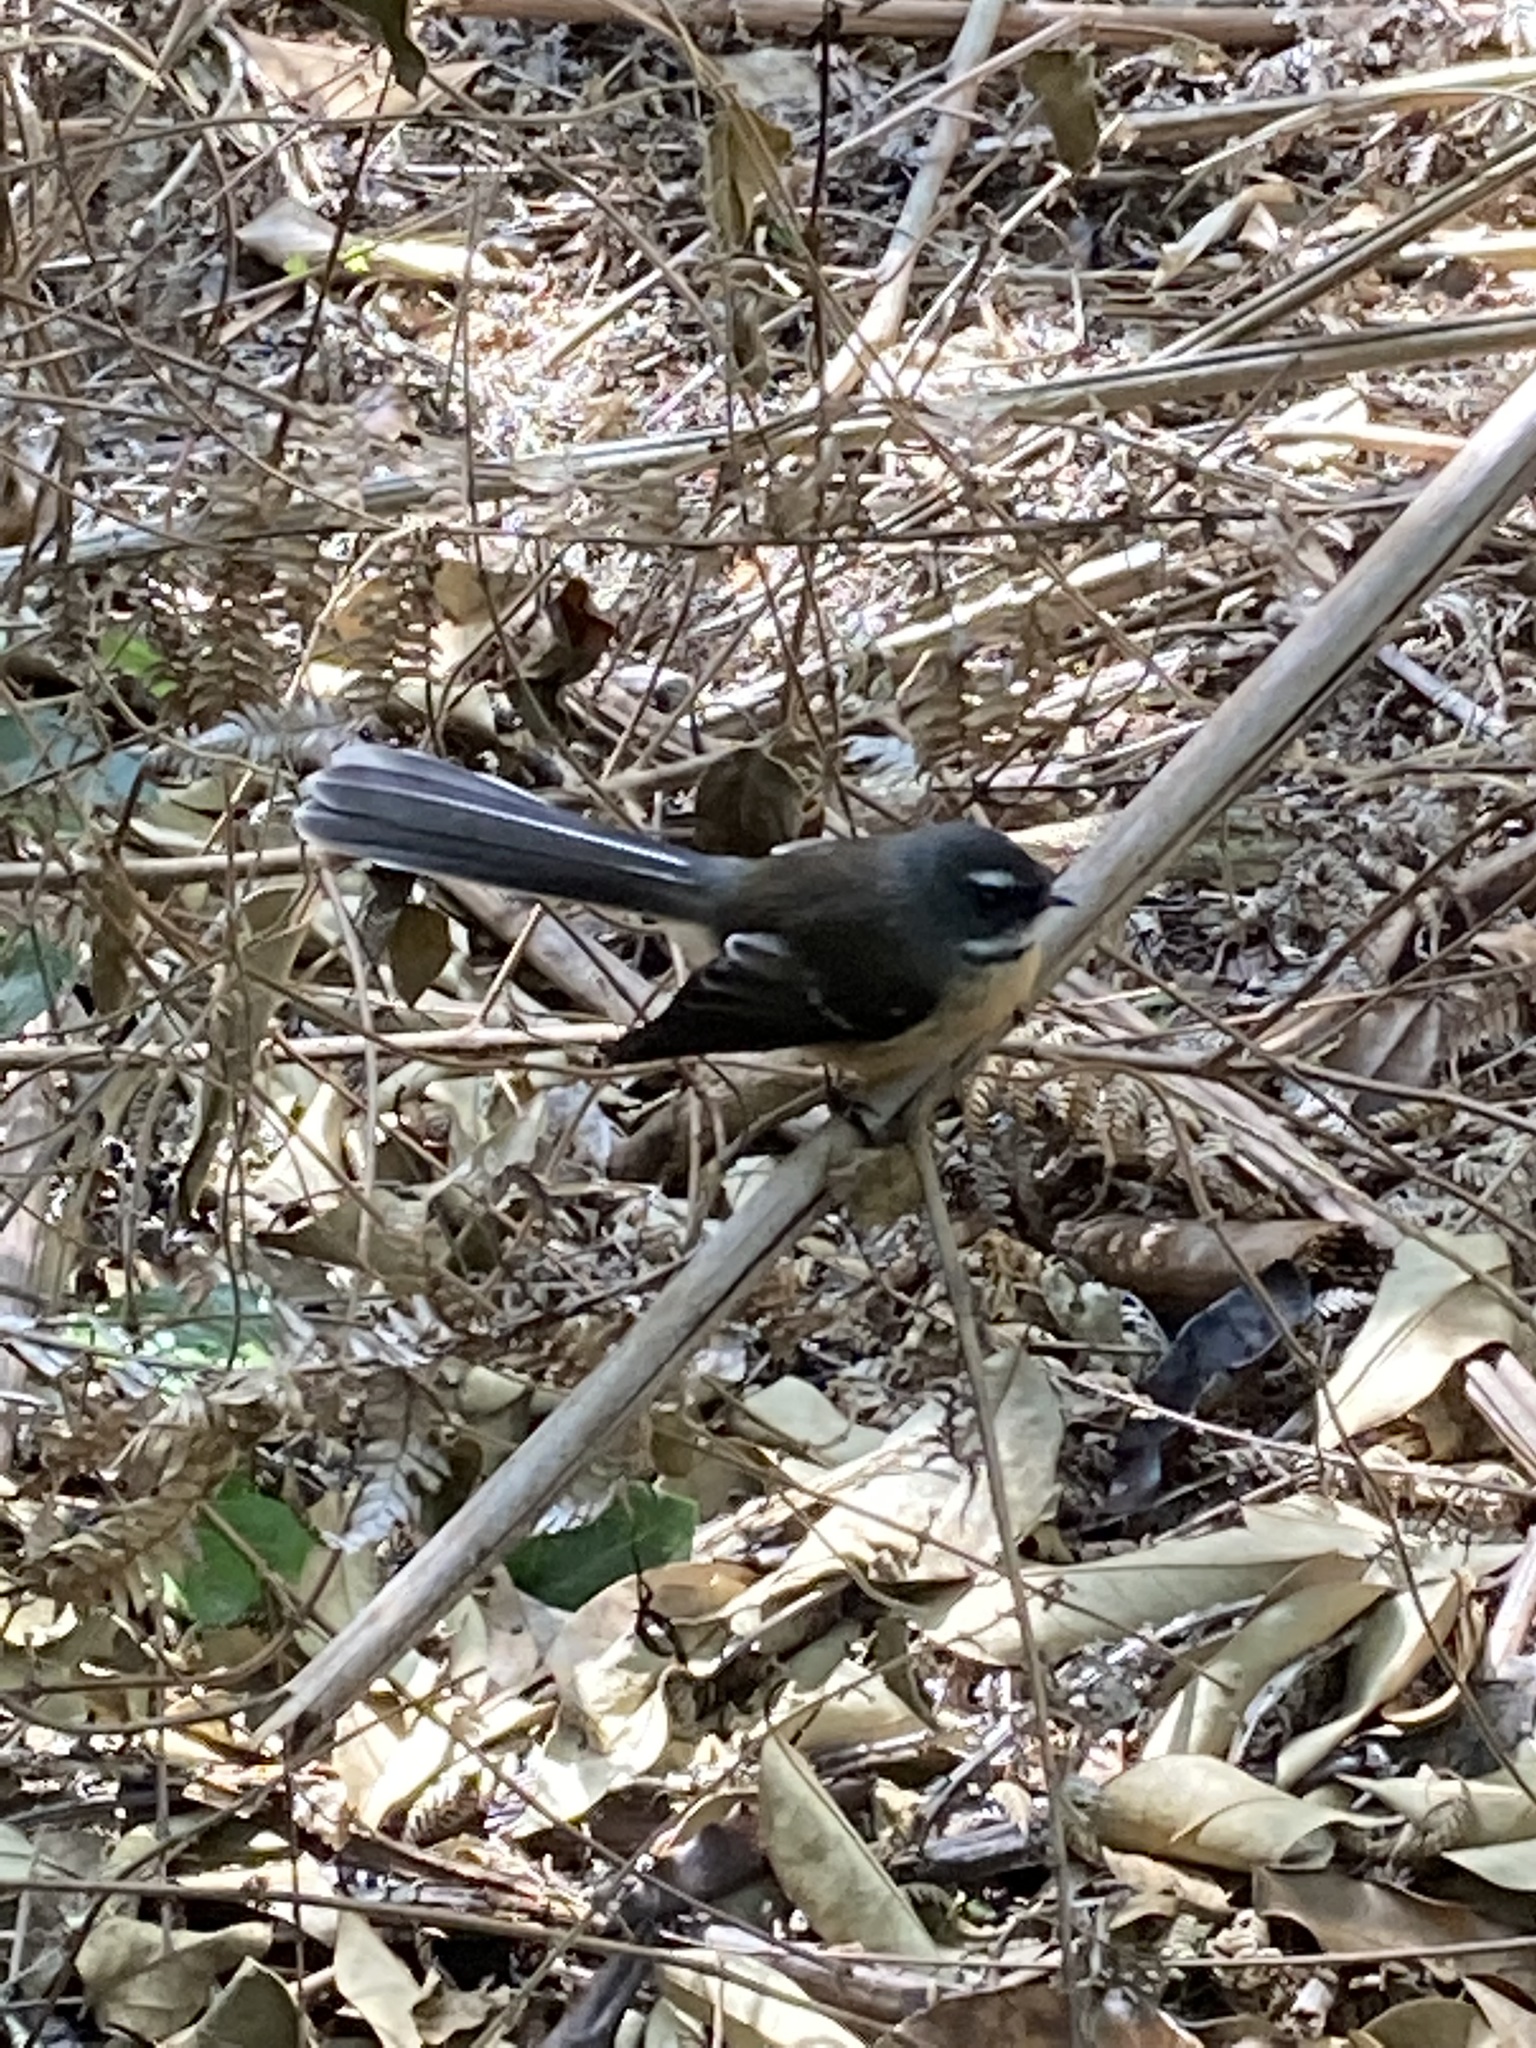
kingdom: Animalia
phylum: Chordata
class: Aves
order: Passeriformes
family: Rhipiduridae
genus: Rhipidura
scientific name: Rhipidura fuliginosa
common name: New zealand fantail
